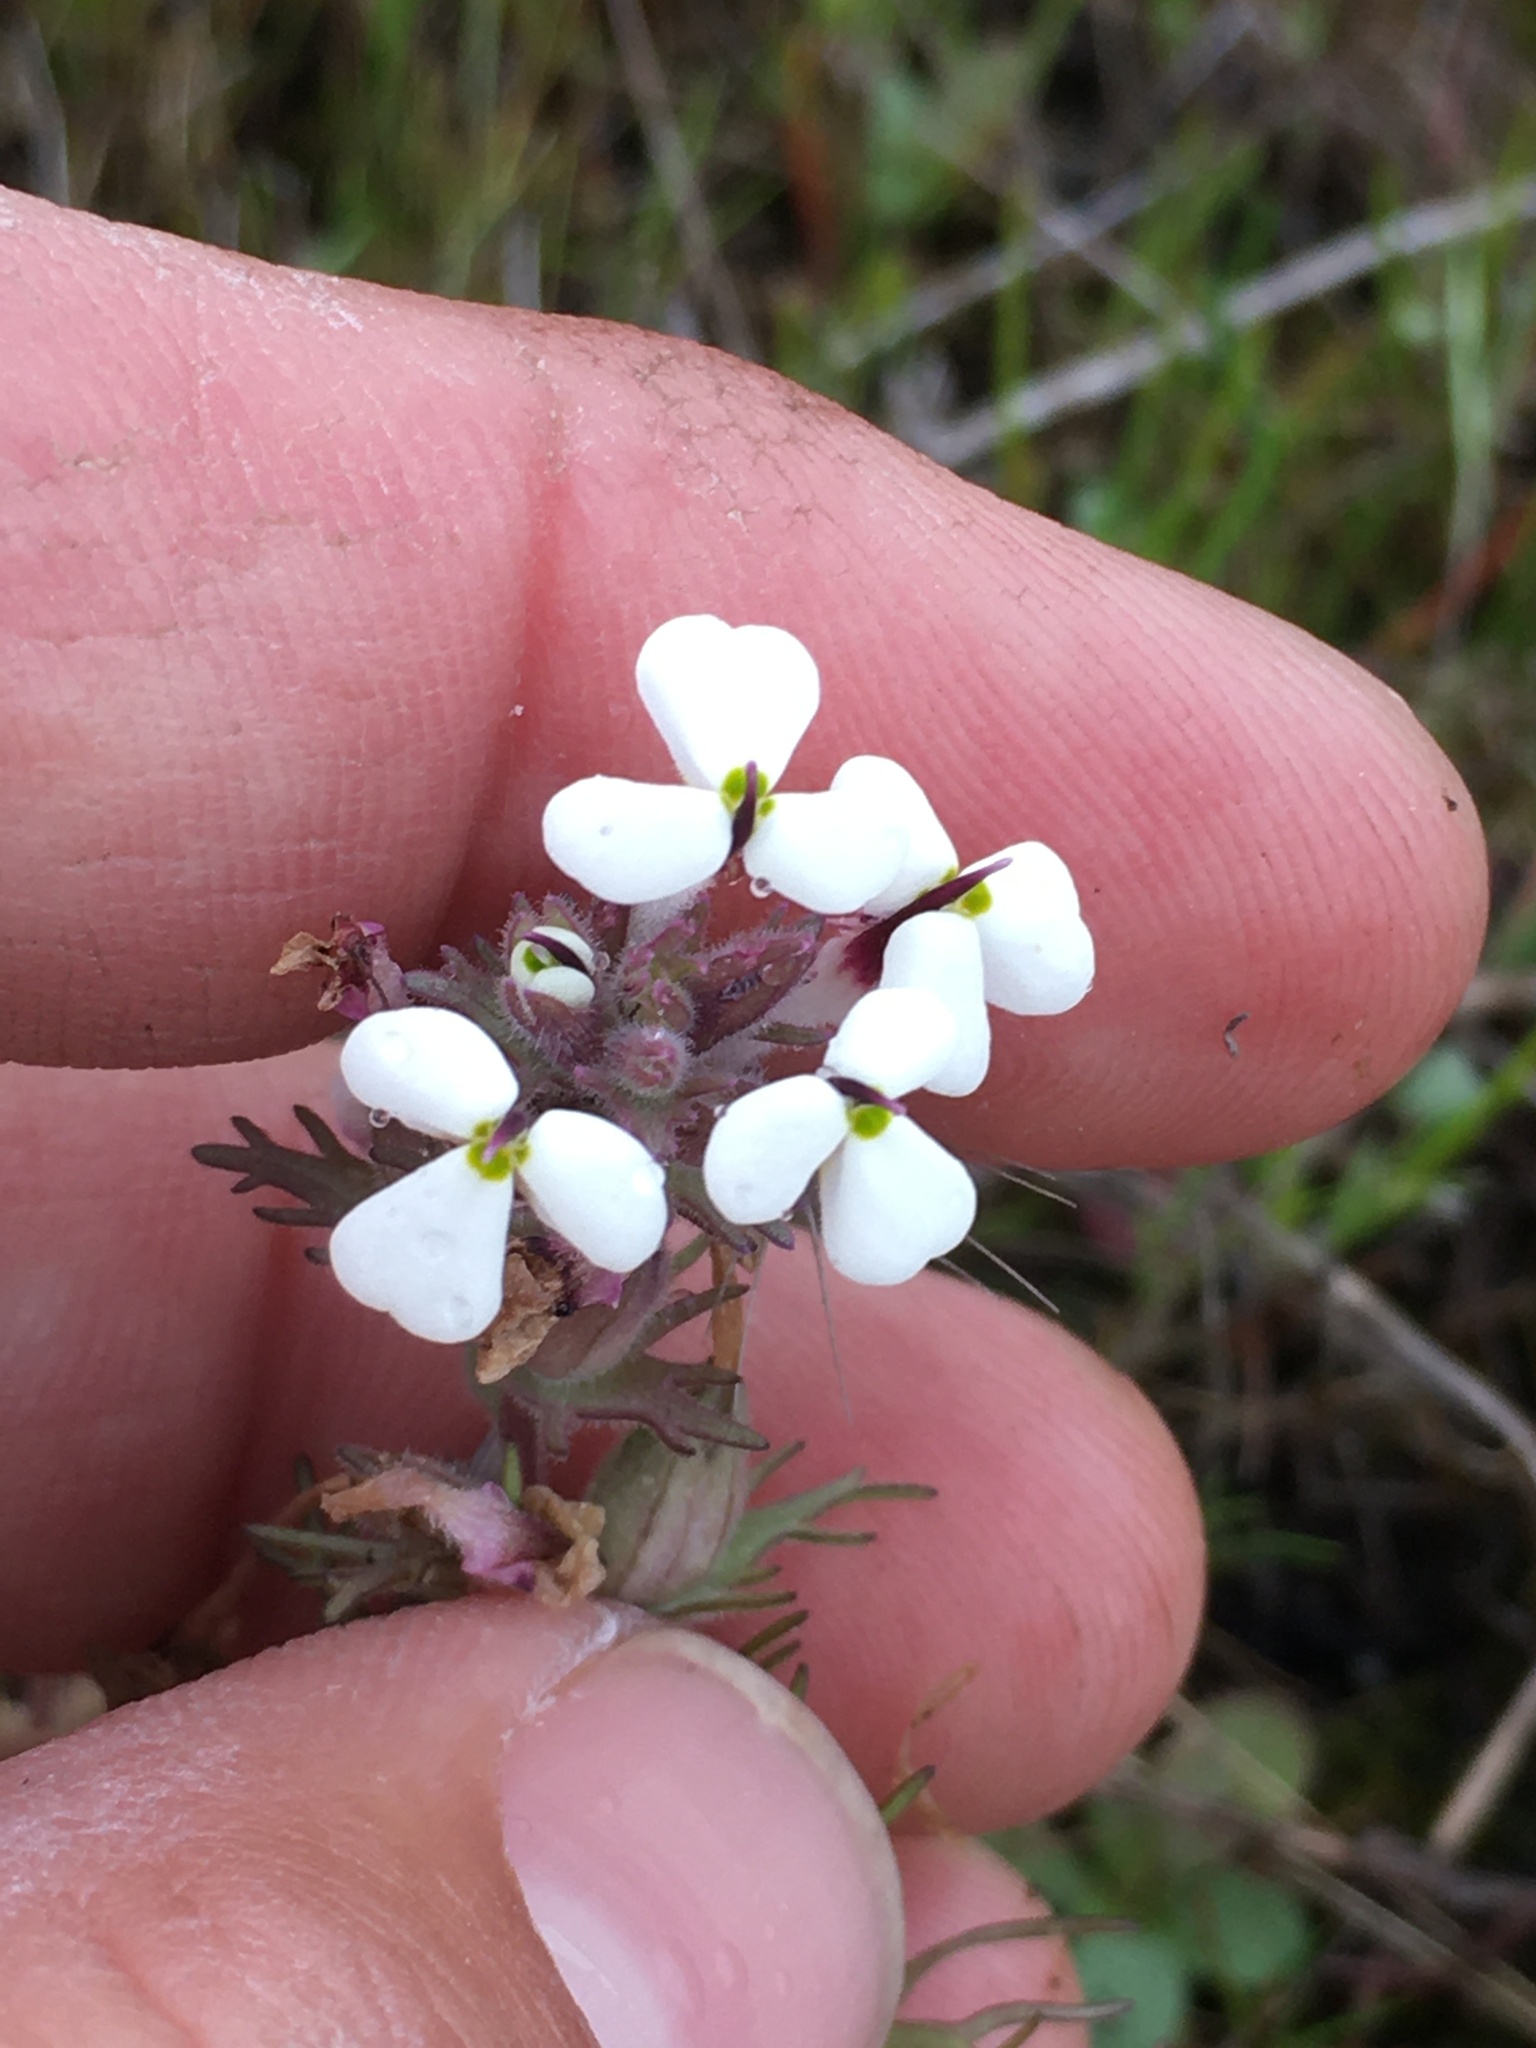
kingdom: Plantae
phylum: Tracheophyta
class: Magnoliopsida
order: Lamiales
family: Orobanchaceae
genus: Triphysaria
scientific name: Triphysaria eriantha
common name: Johnny-tuck
